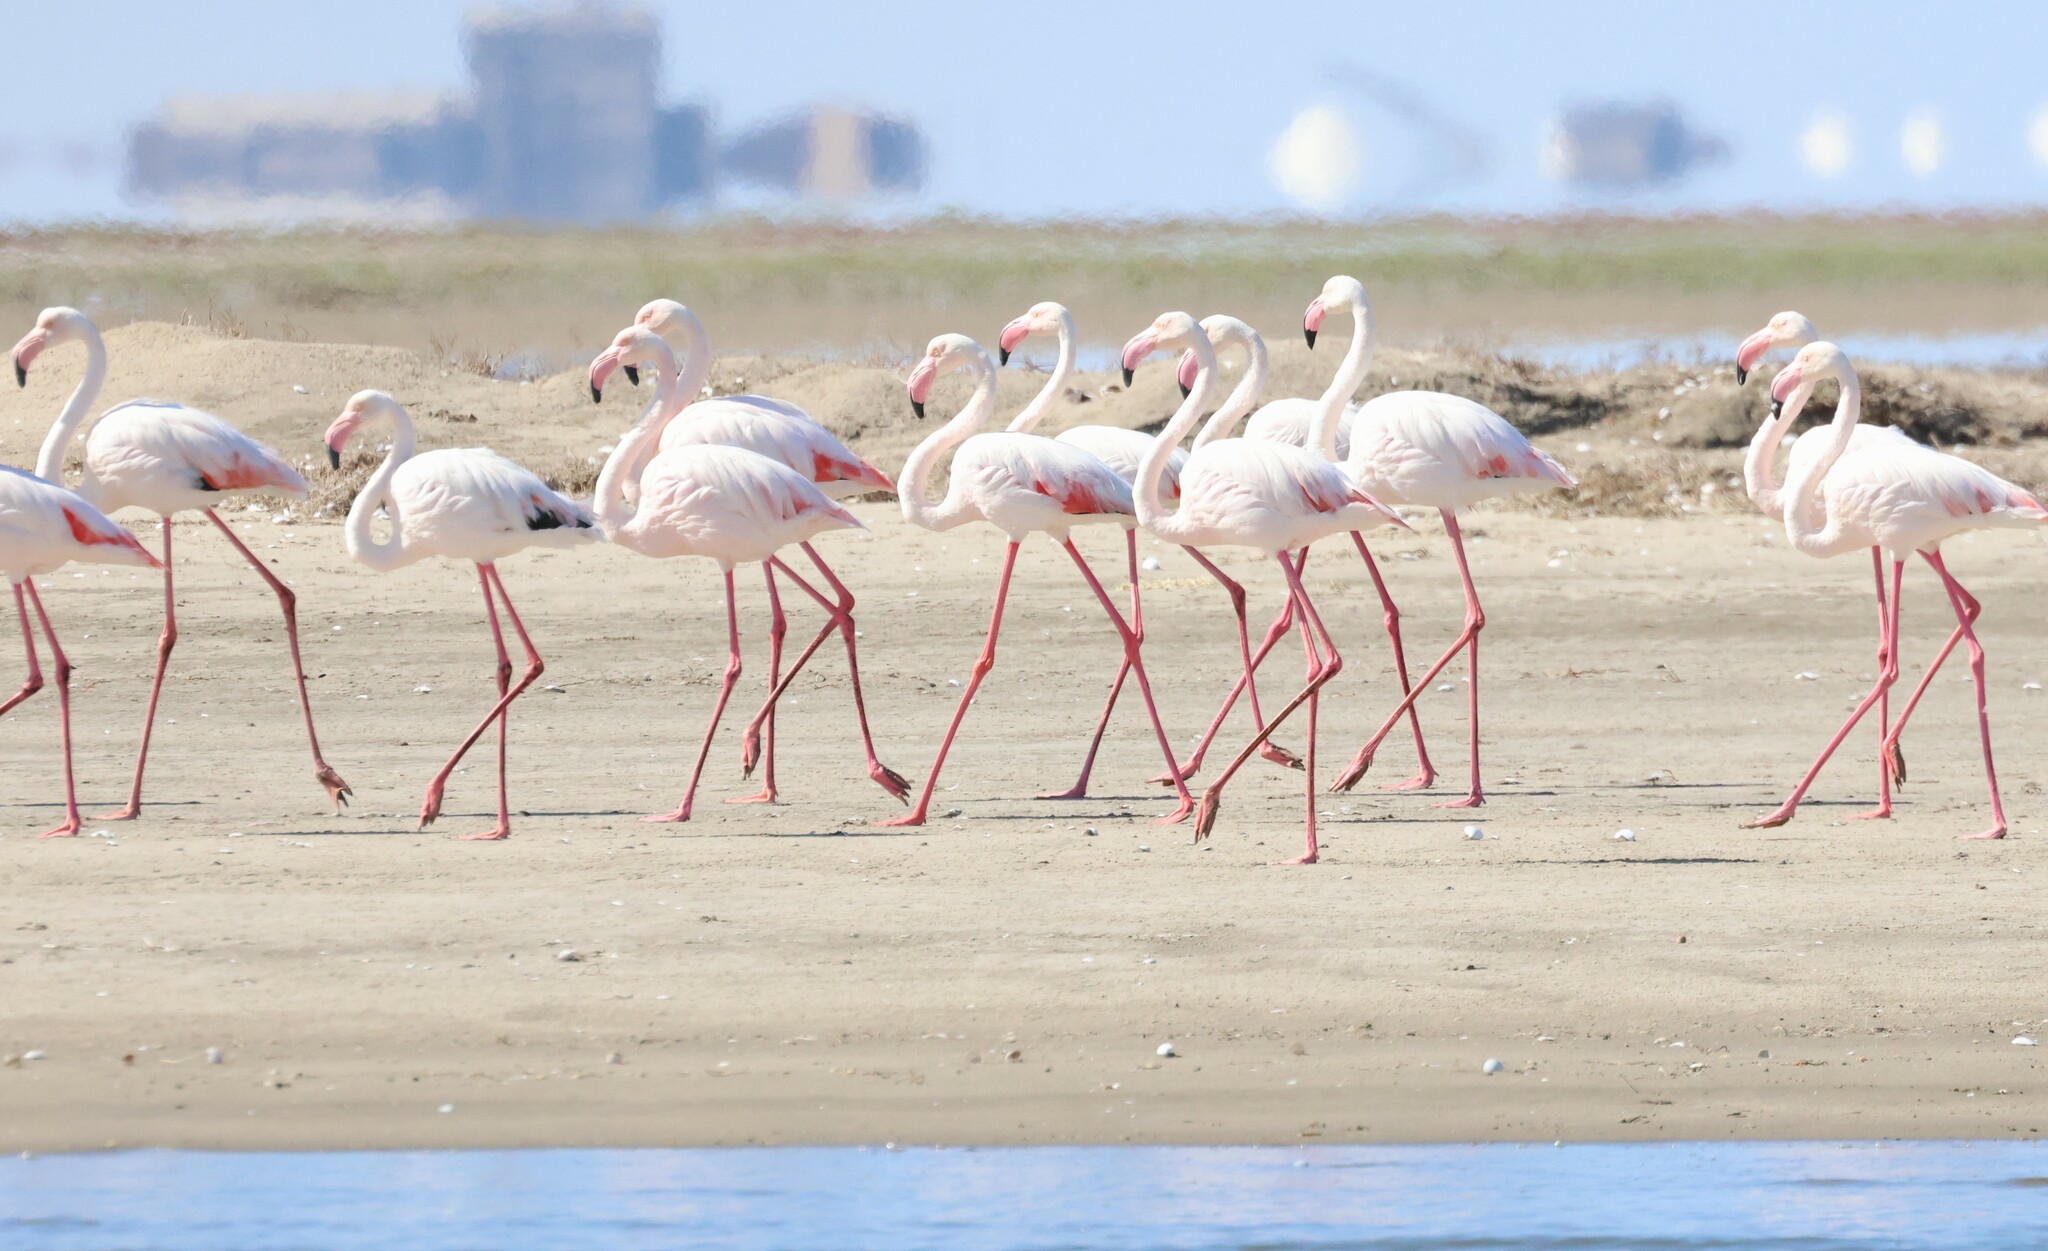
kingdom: Animalia
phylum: Chordata
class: Aves
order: Phoenicopteriformes
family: Phoenicopteridae
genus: Phoenicopterus
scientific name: Phoenicopterus roseus
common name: Greater flamingo
